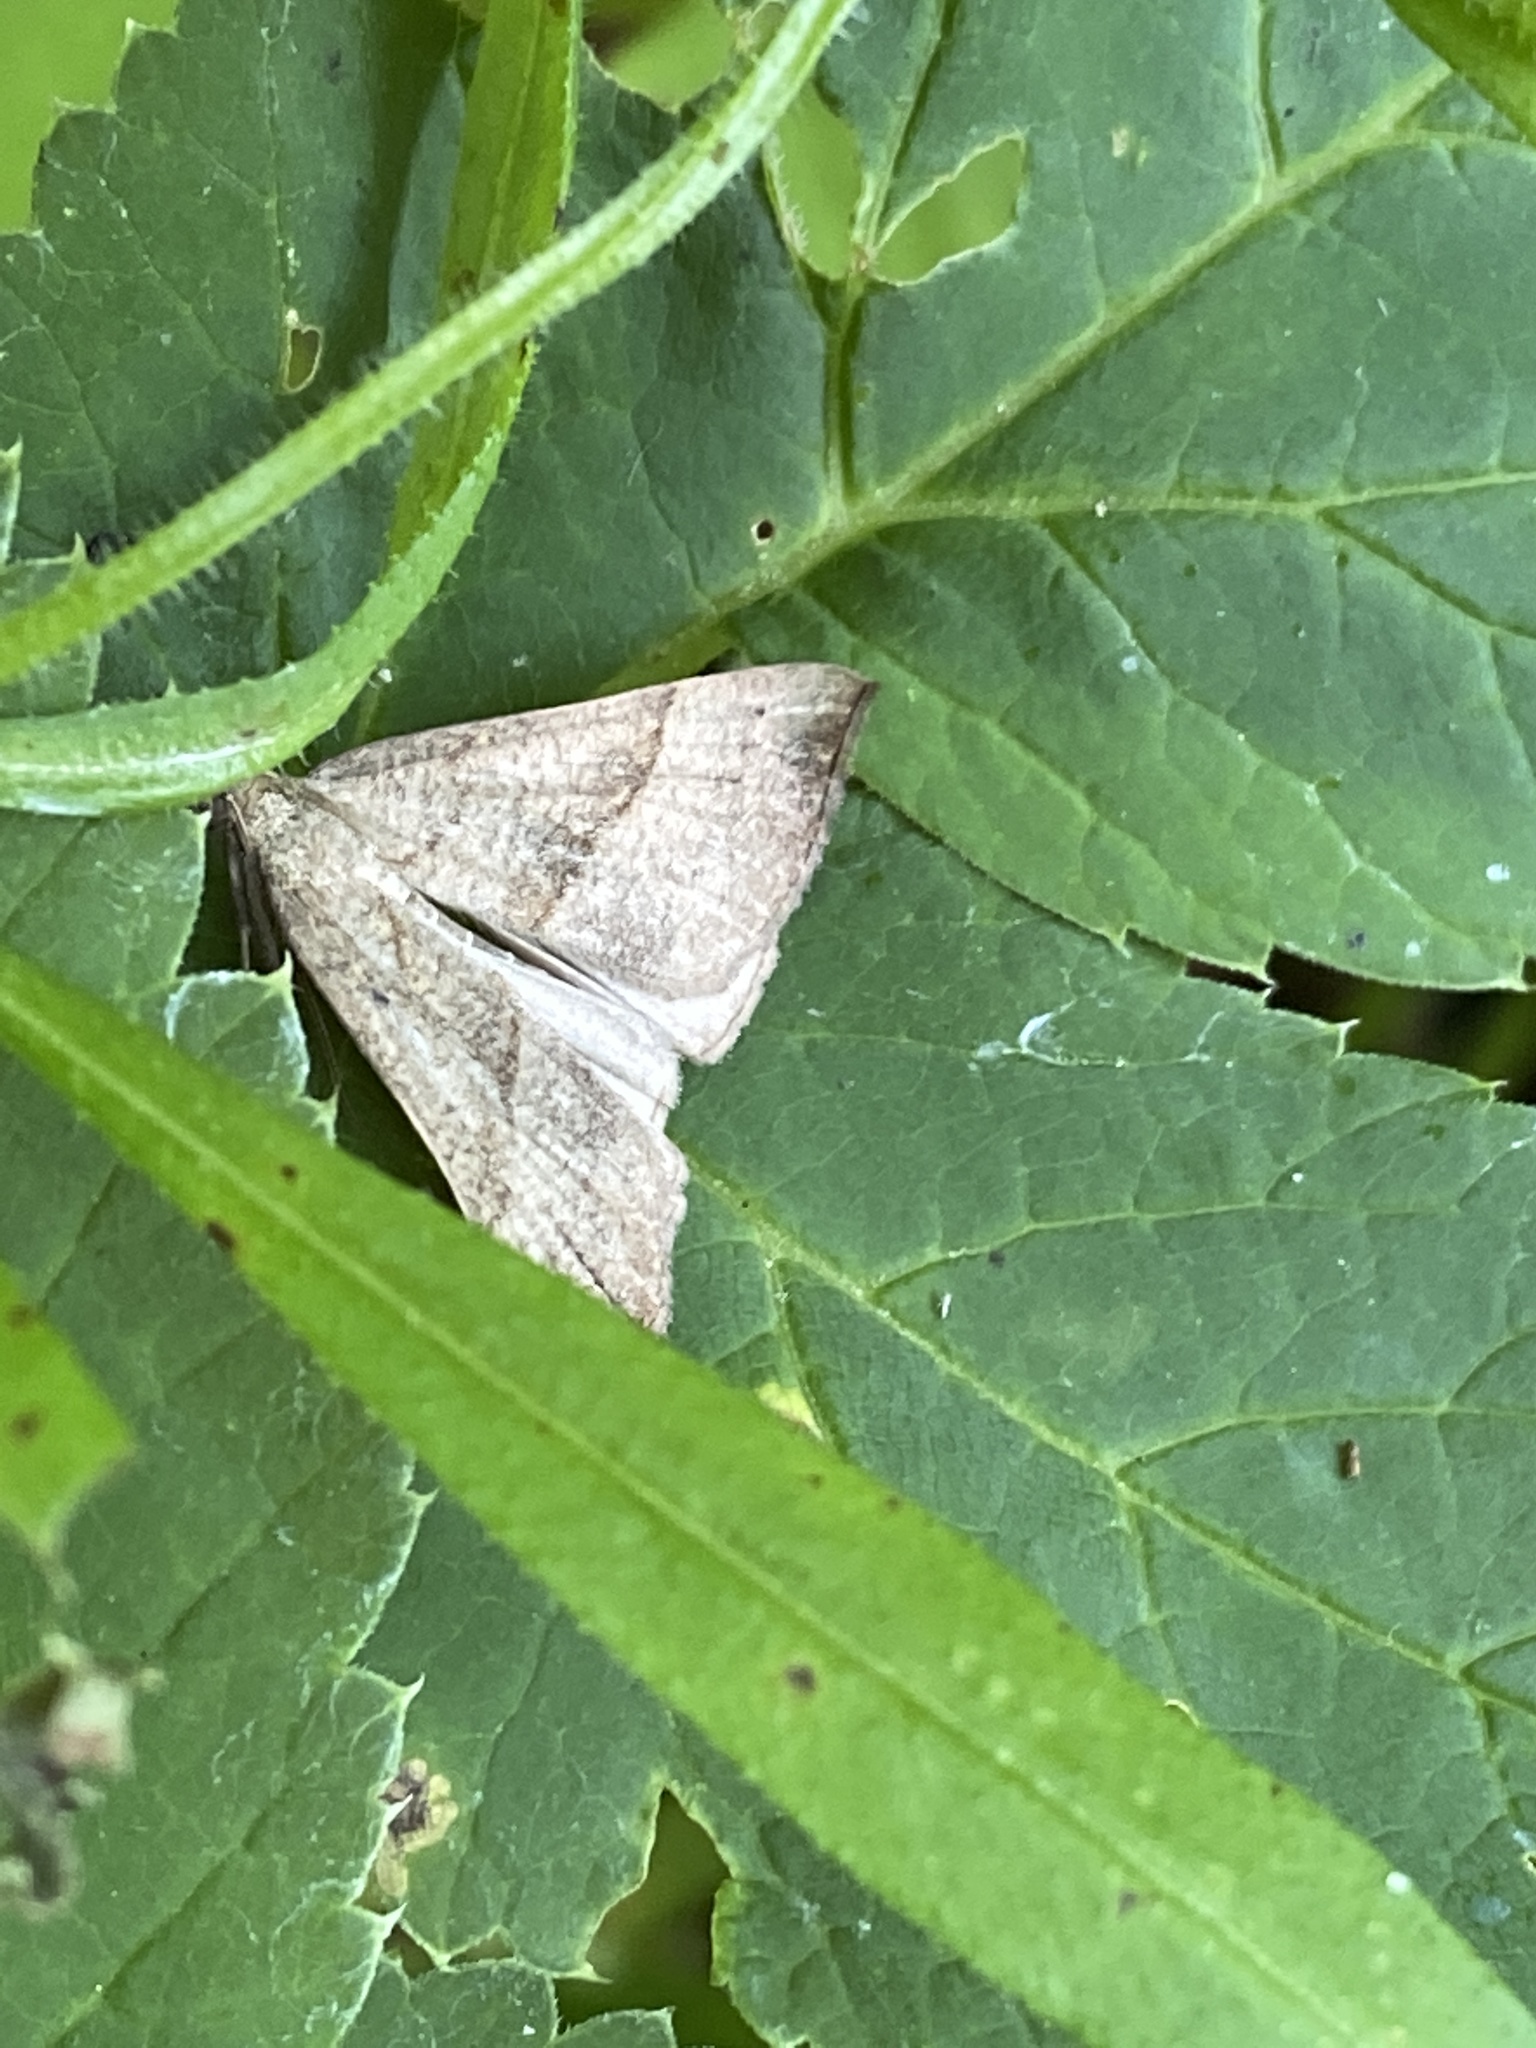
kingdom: Animalia
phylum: Arthropoda
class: Insecta
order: Lepidoptera
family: Erebidae
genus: Hypena
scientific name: Hypena proboscidalis
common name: Snout
